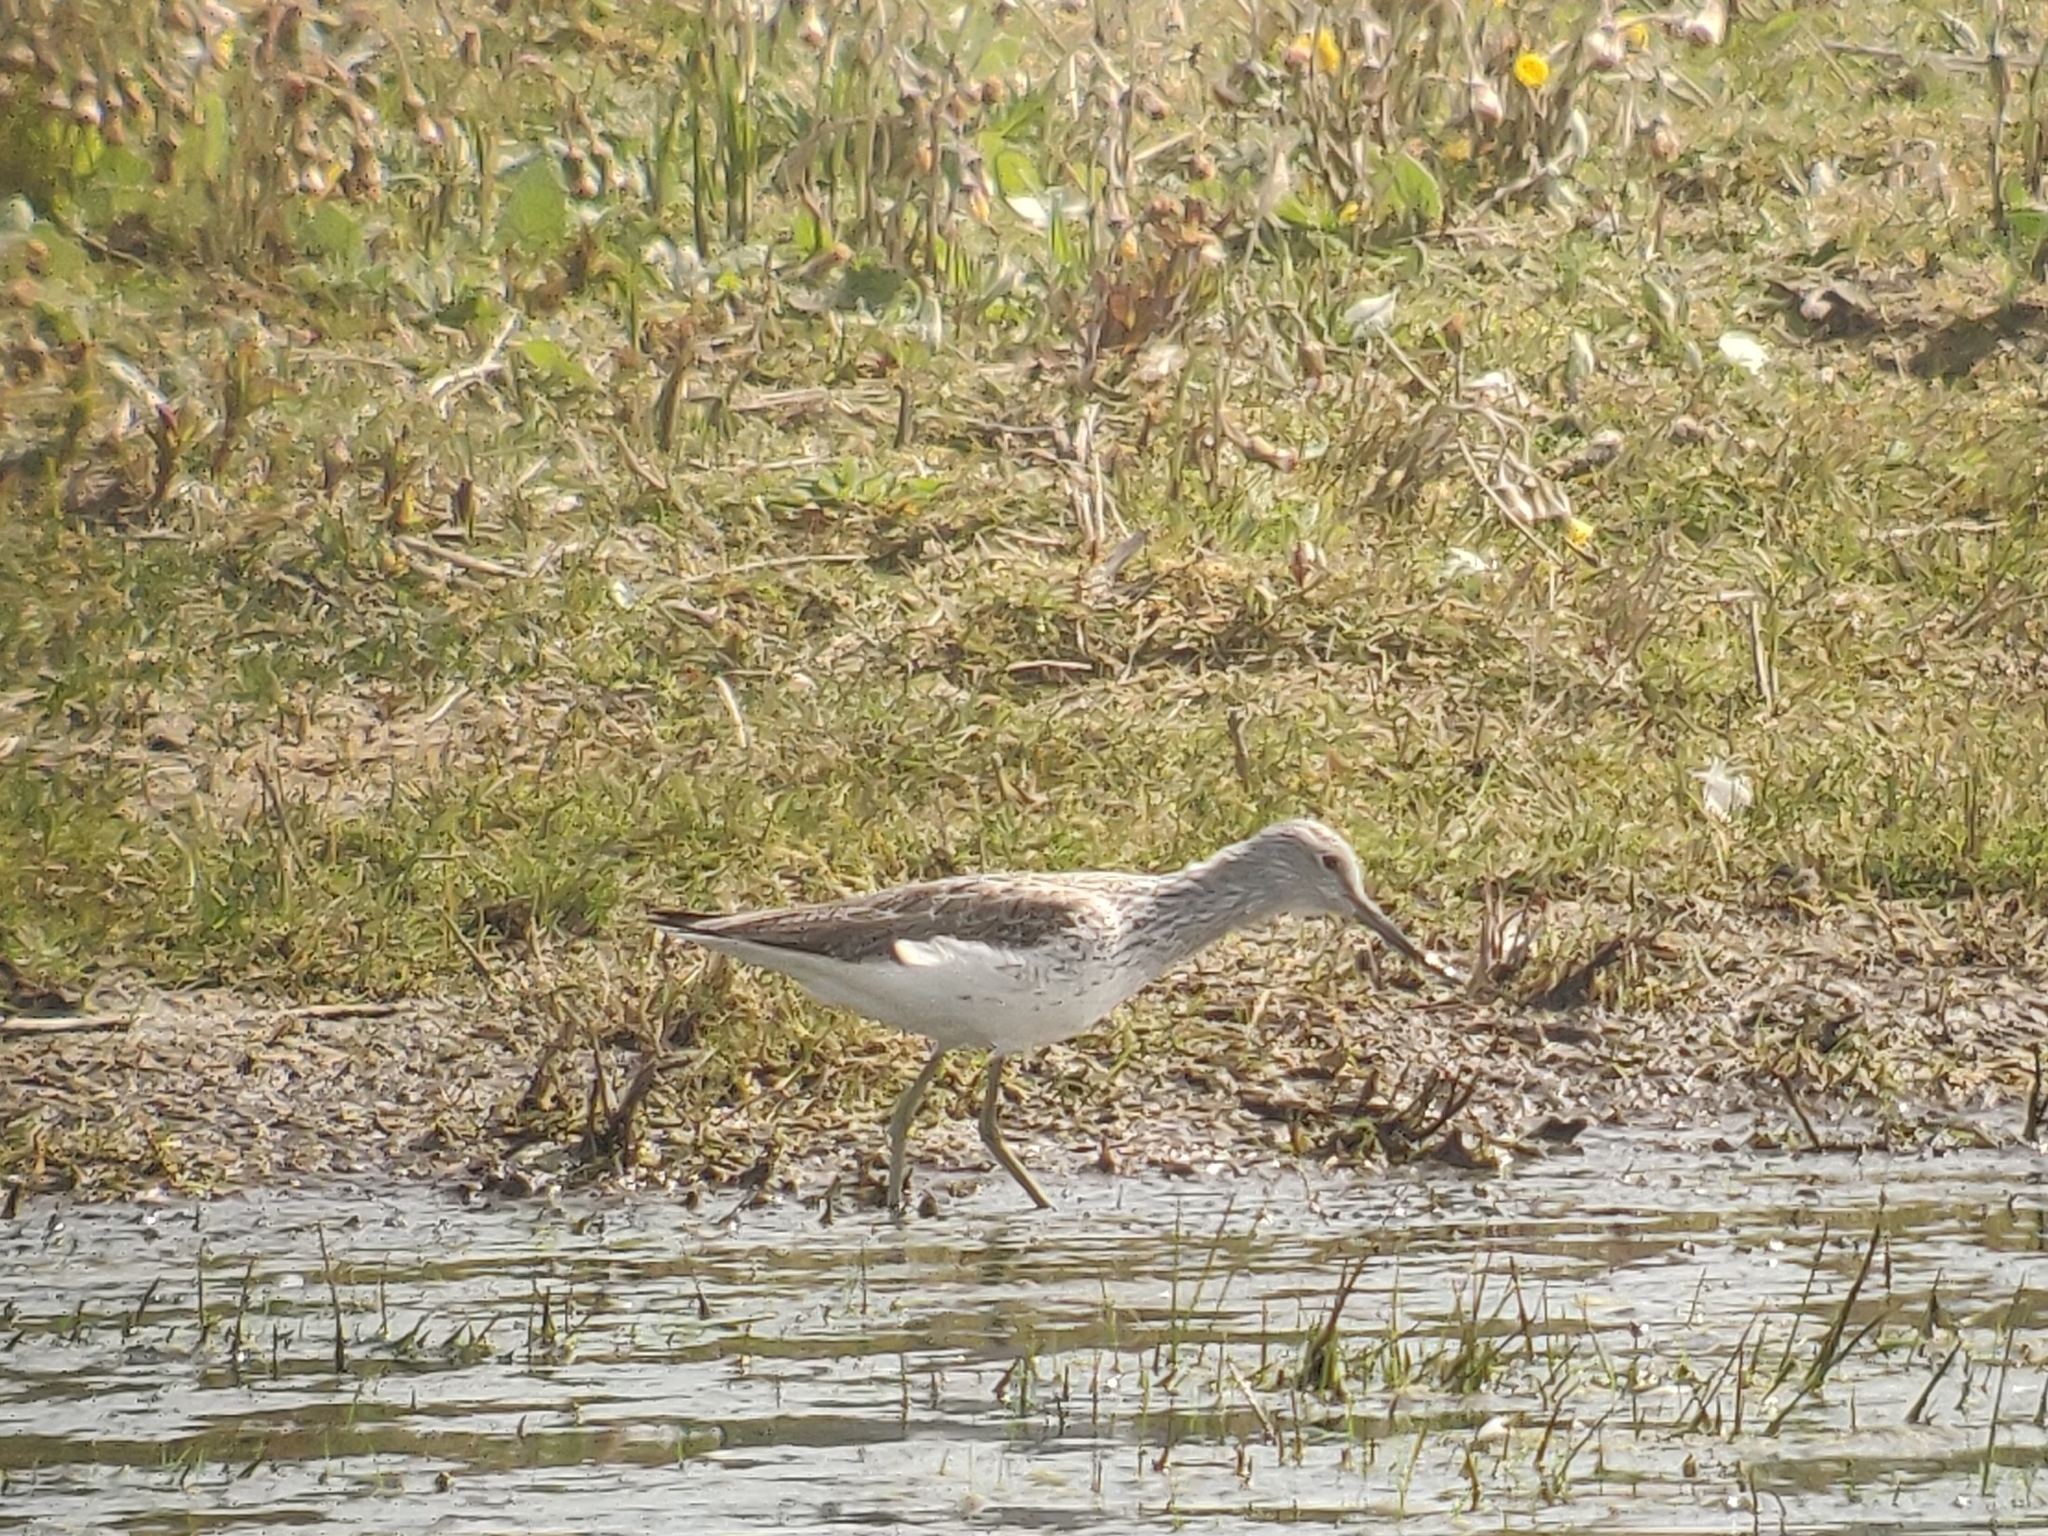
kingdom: Animalia
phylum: Chordata
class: Aves
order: Charadriiformes
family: Scolopacidae
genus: Tringa
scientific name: Tringa nebularia
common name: Common greenshank
